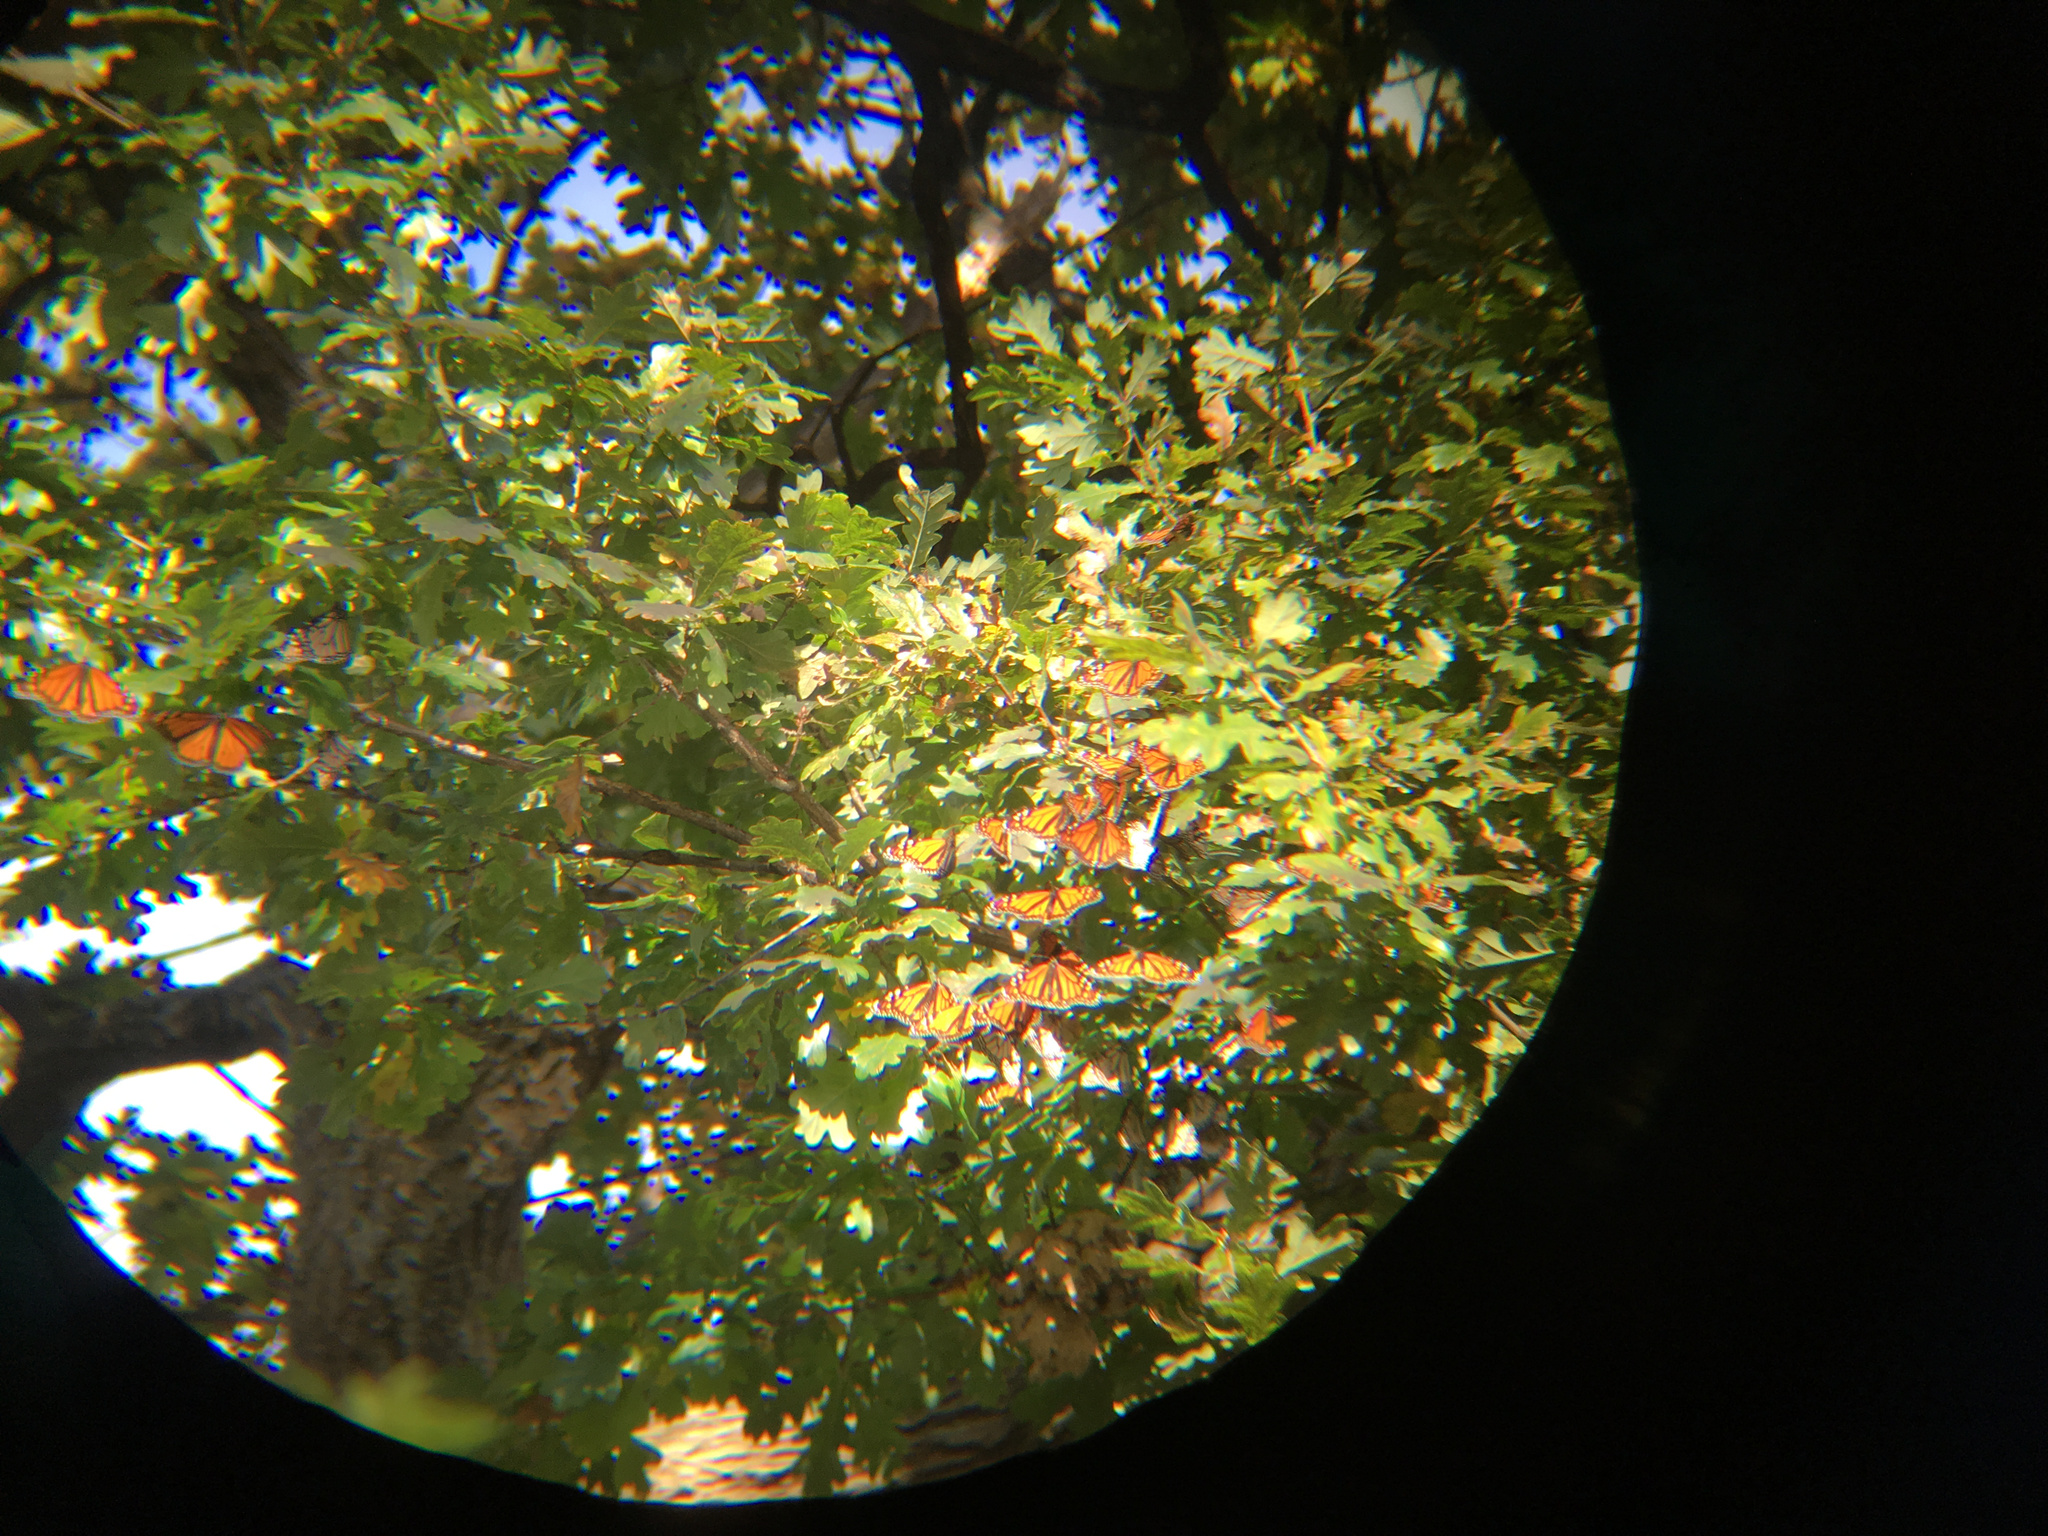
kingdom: Animalia
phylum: Arthropoda
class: Insecta
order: Lepidoptera
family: Nymphalidae
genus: Danaus
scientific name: Danaus plexippus
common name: Monarch
